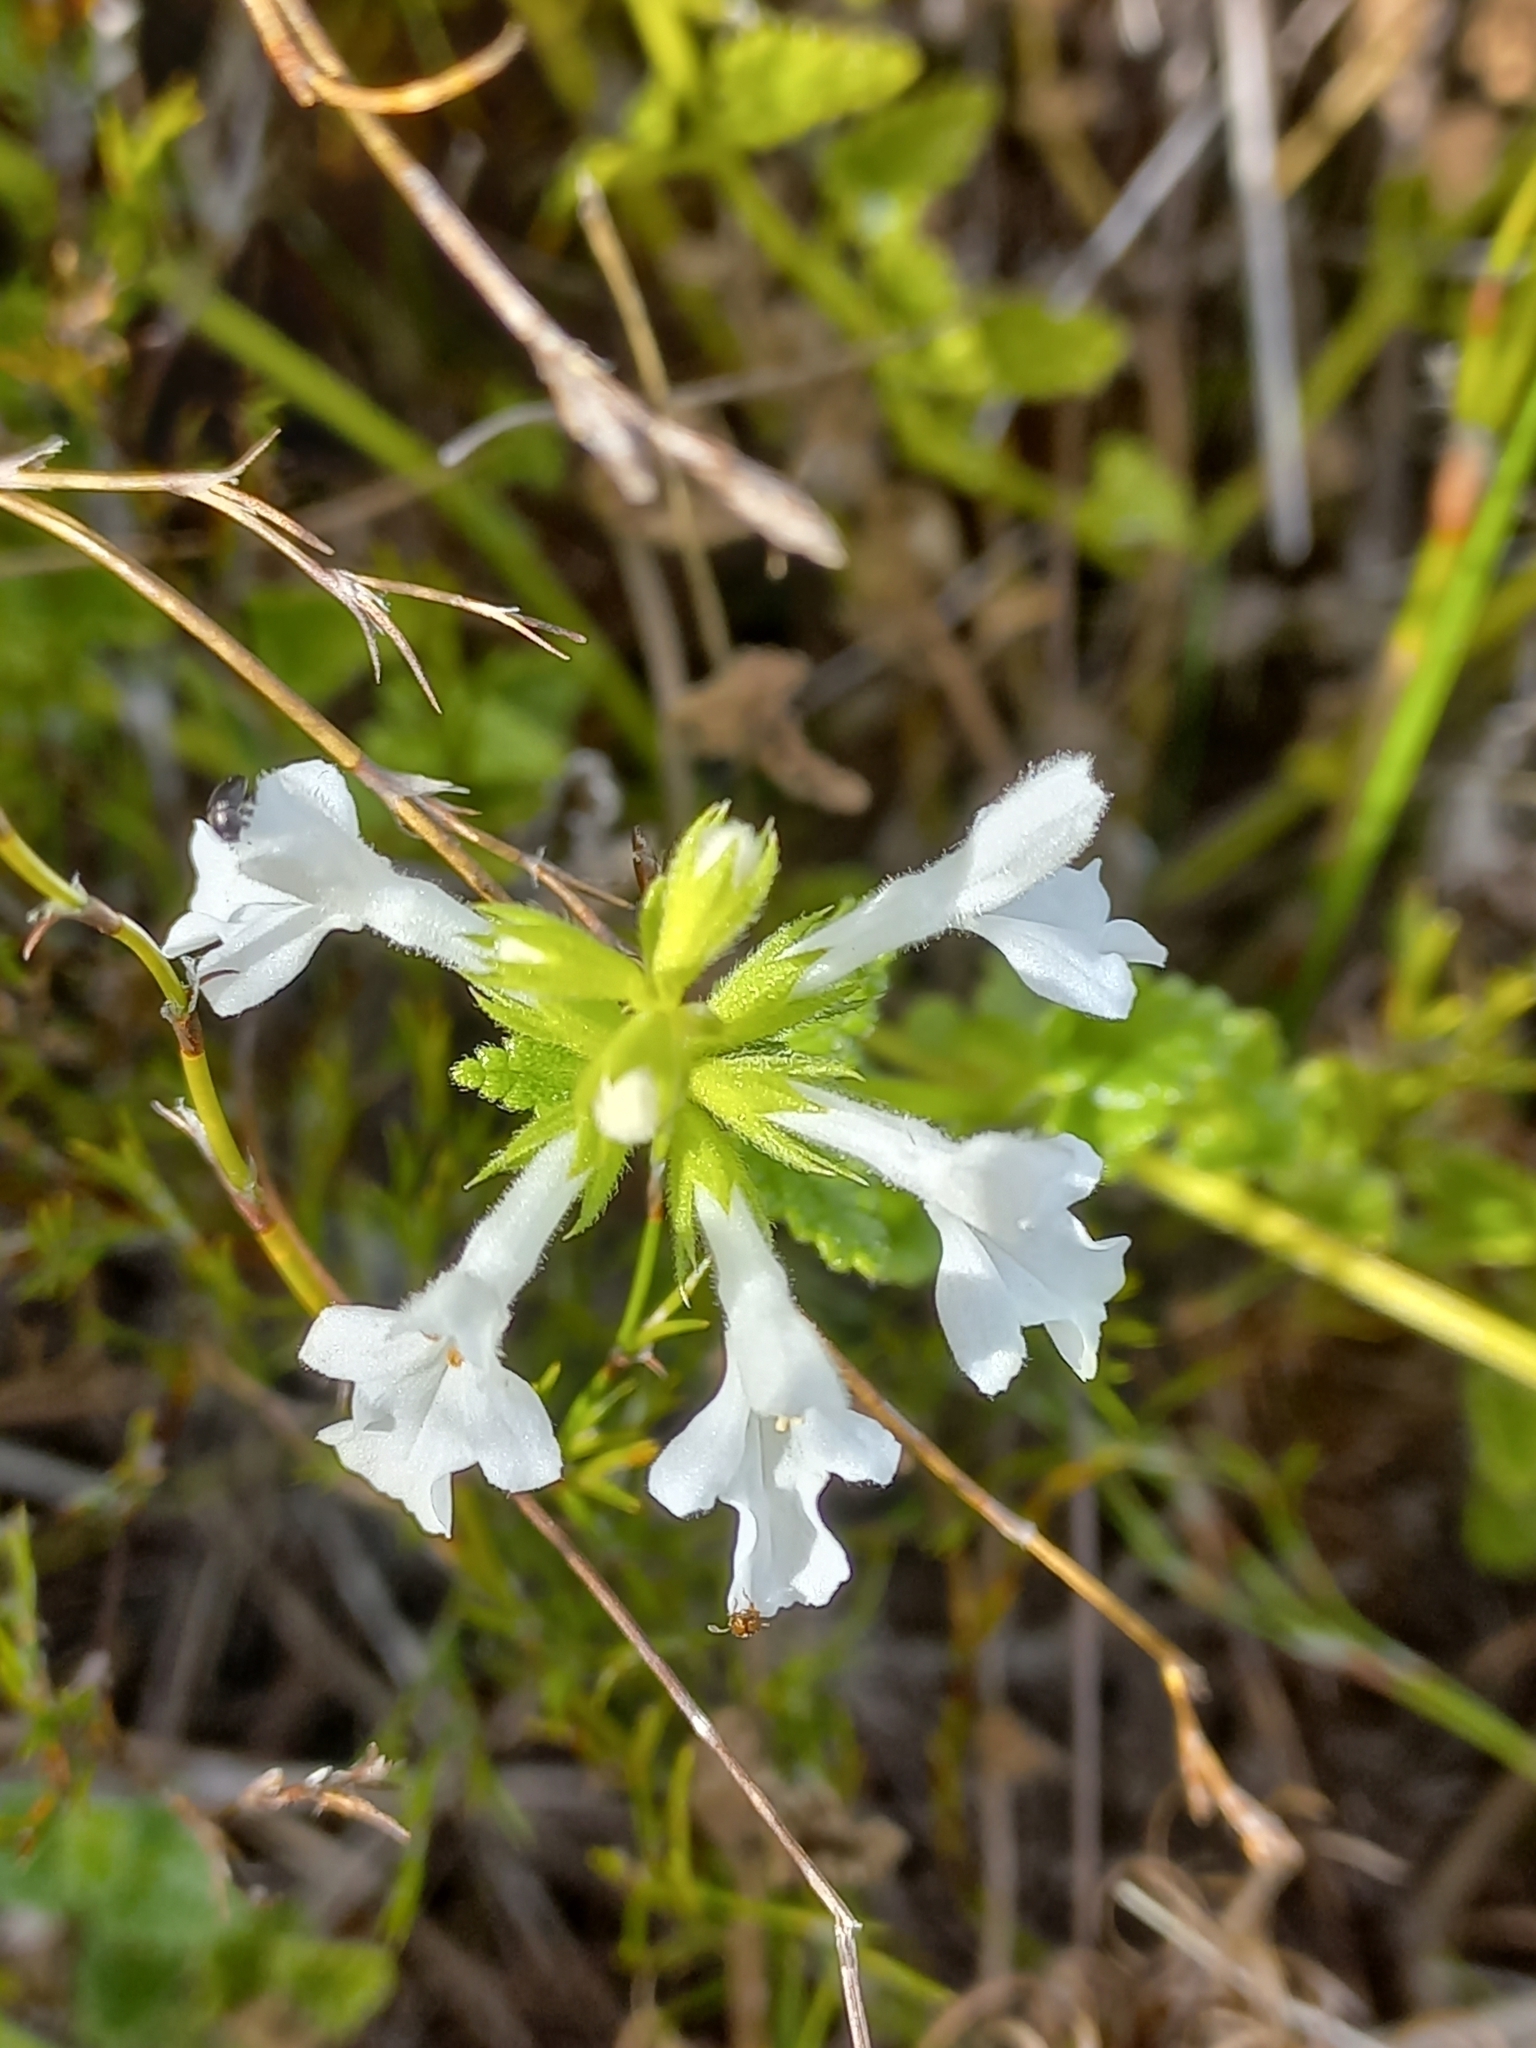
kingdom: Plantae
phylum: Tracheophyta
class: Magnoliopsida
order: Lamiales
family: Lamiaceae
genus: Stachys
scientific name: Stachys aethiopica
